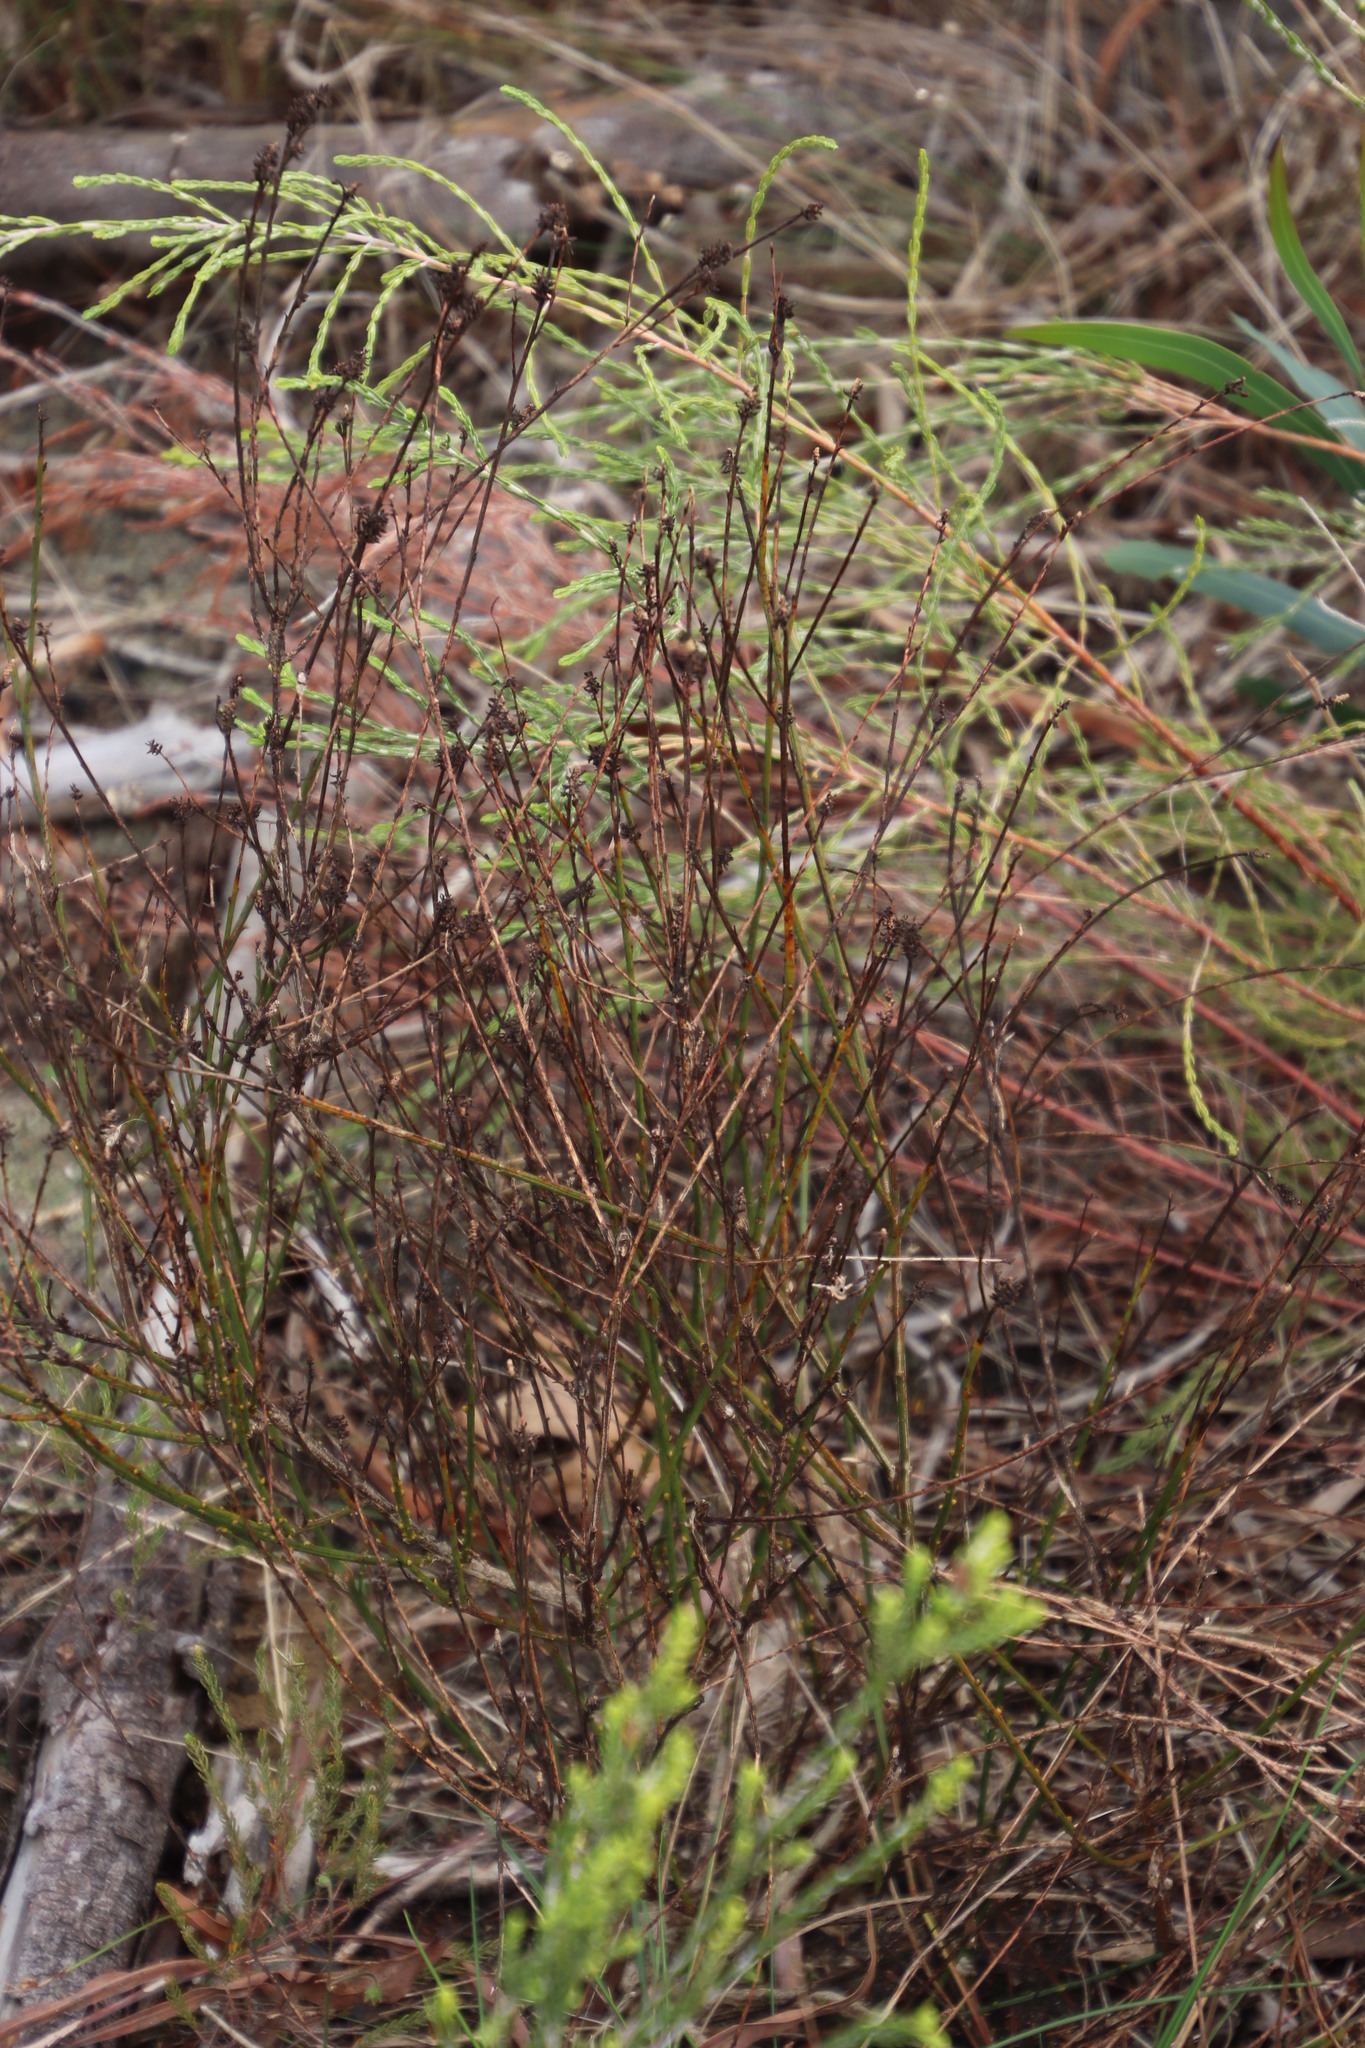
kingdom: Plantae
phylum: Tracheophyta
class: Magnoliopsida
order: Santalales
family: Thesiaceae
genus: Thesium
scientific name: Thesium aggregatum
